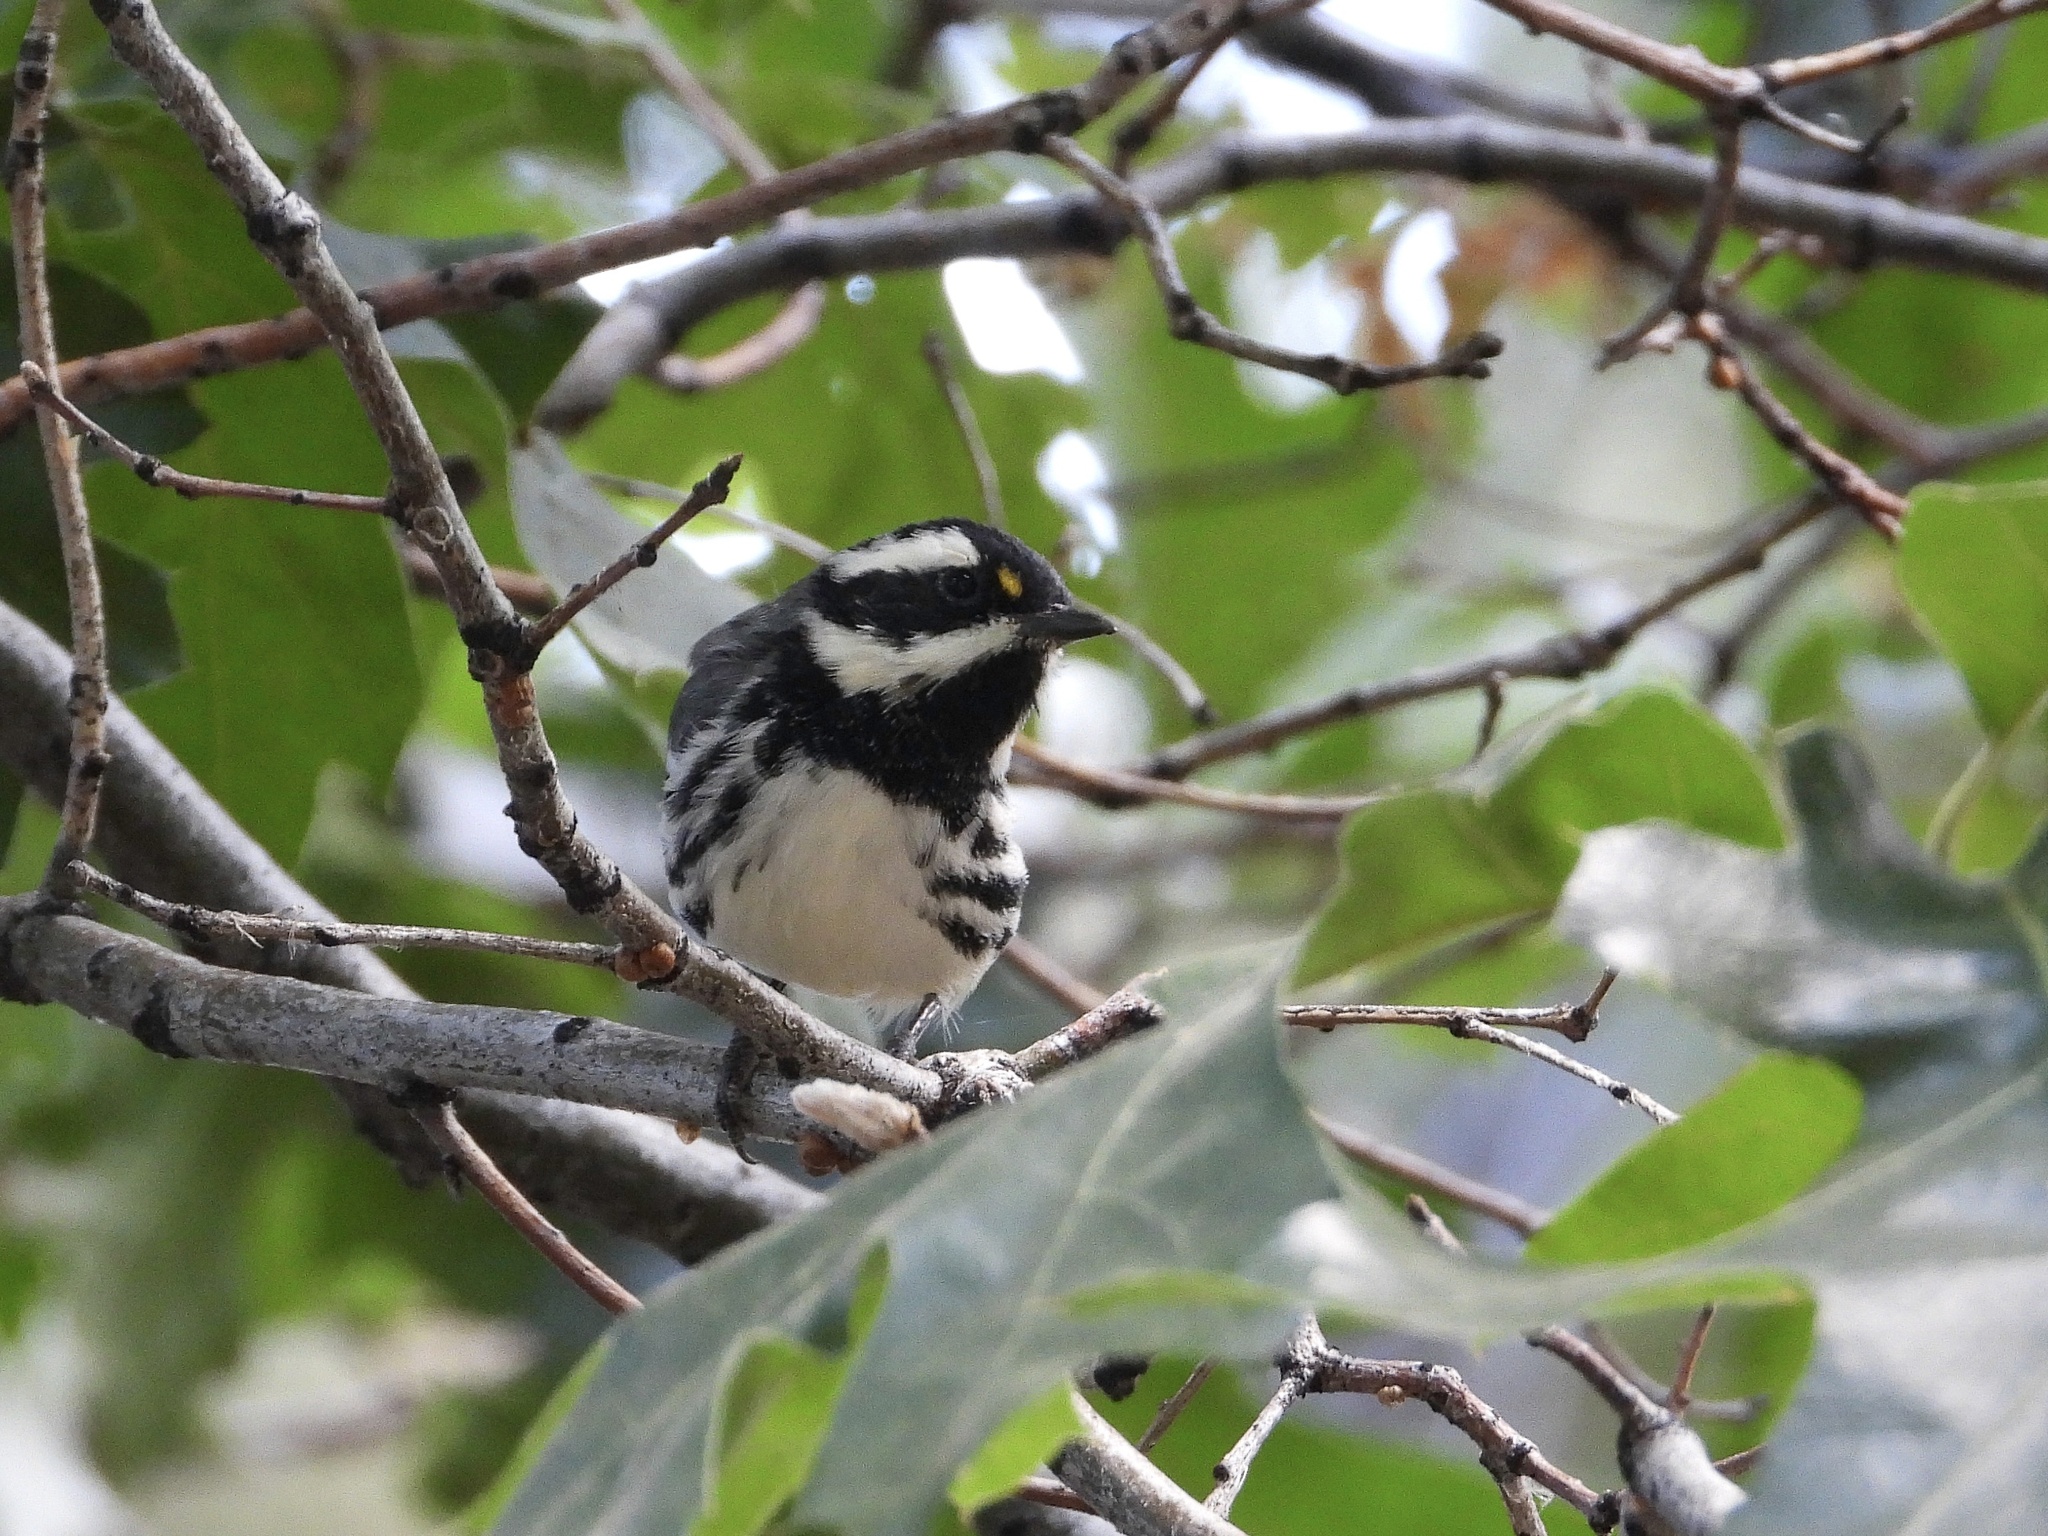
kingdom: Animalia
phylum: Chordata
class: Aves
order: Passeriformes
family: Parulidae
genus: Setophaga
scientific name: Setophaga nigrescens
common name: Black-throated gray warbler
